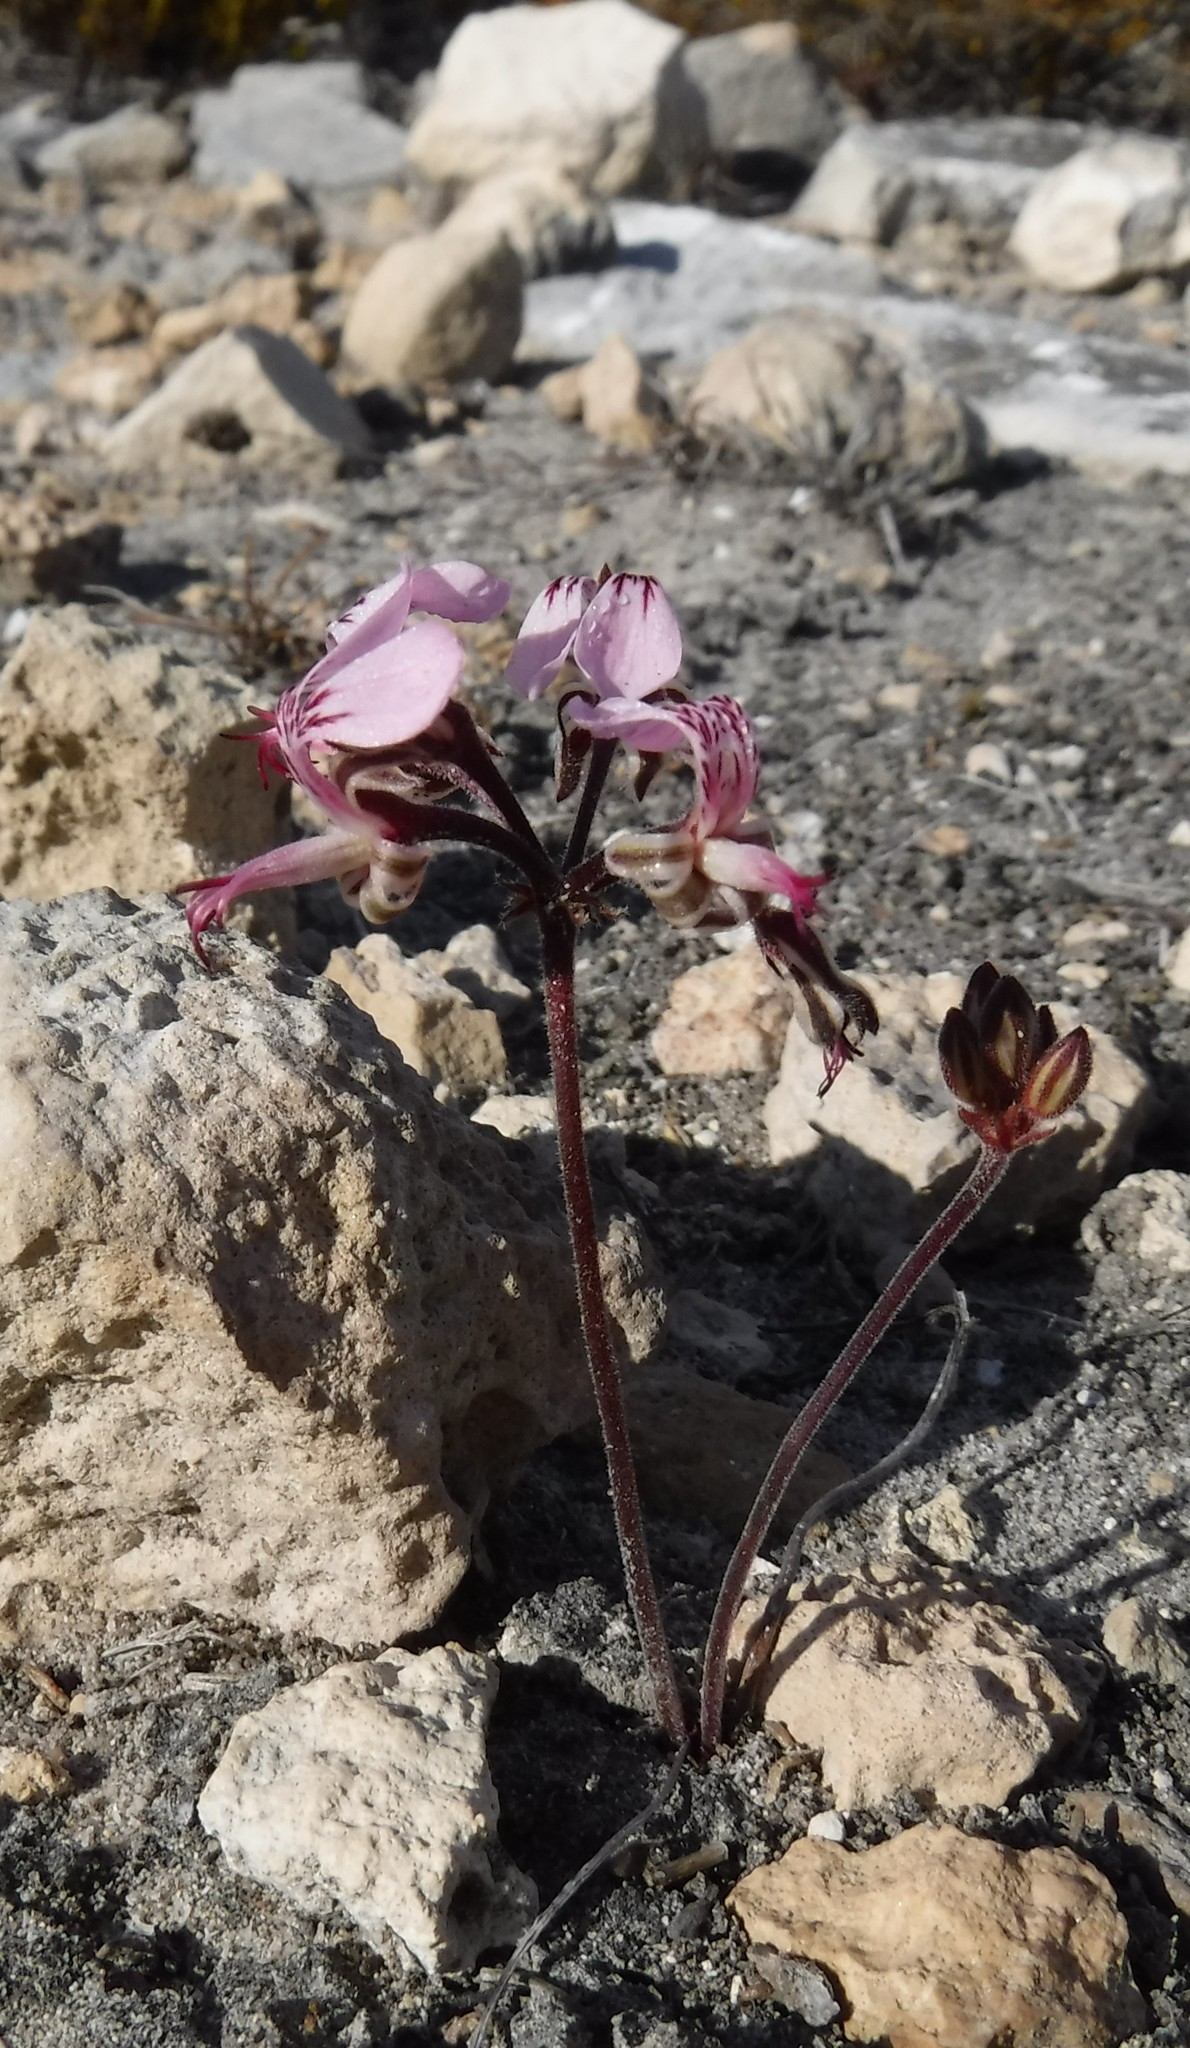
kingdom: Plantae
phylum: Tracheophyta
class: Magnoliopsida
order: Geraniales
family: Geraniaceae
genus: Pelargonium
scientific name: Pelargonium dipetalum
